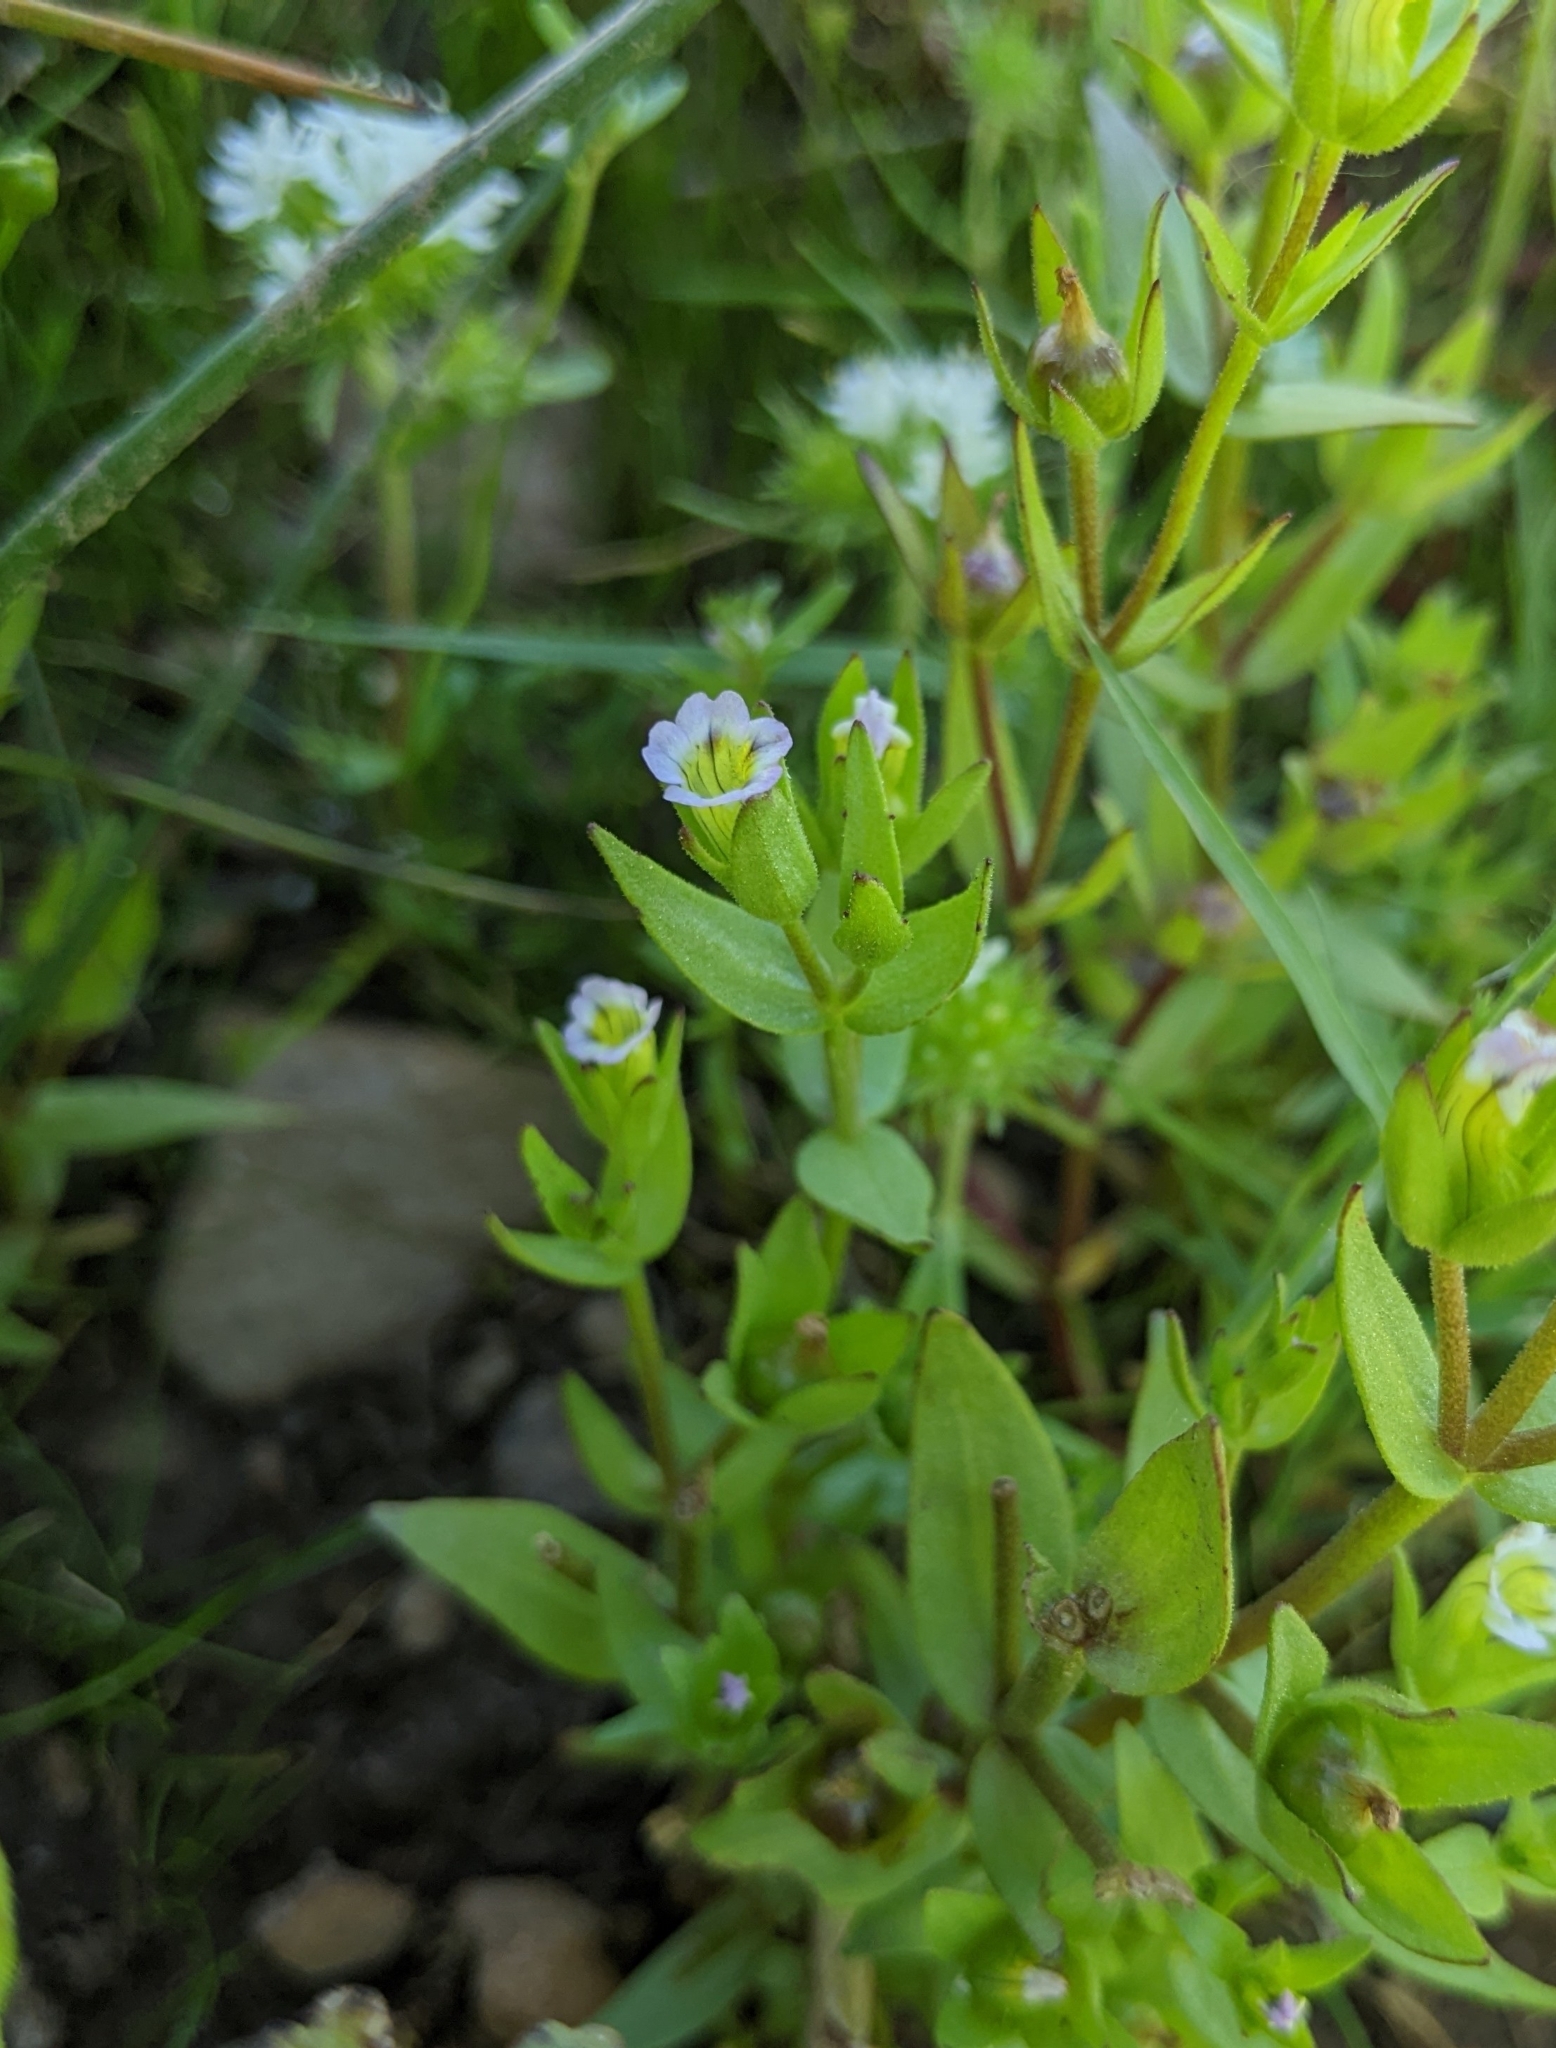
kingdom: Plantae
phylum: Tracheophyta
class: Magnoliopsida
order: Lamiales
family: Plantaginaceae
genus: Gratiola
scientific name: Gratiola ebracteata
